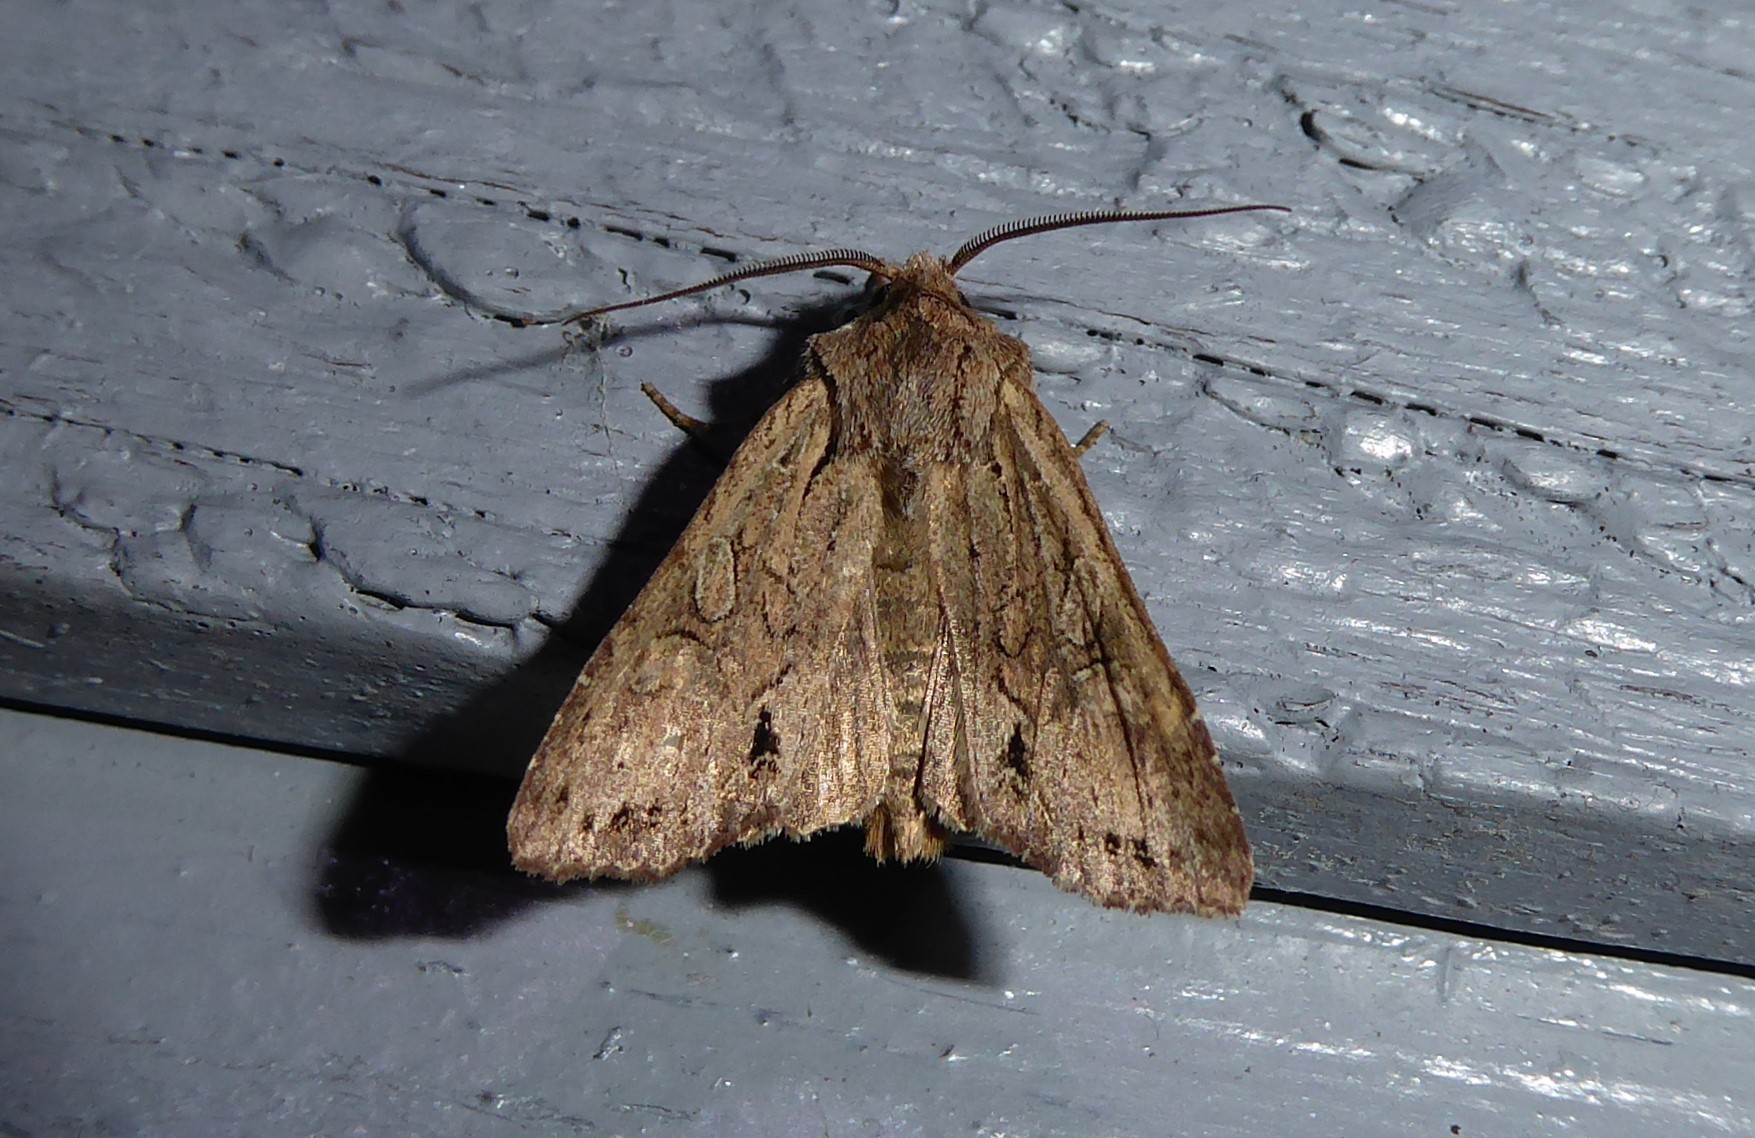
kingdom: Animalia
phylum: Arthropoda
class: Insecta
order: Lepidoptera
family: Noctuidae
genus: Ichneutica
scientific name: Ichneutica
